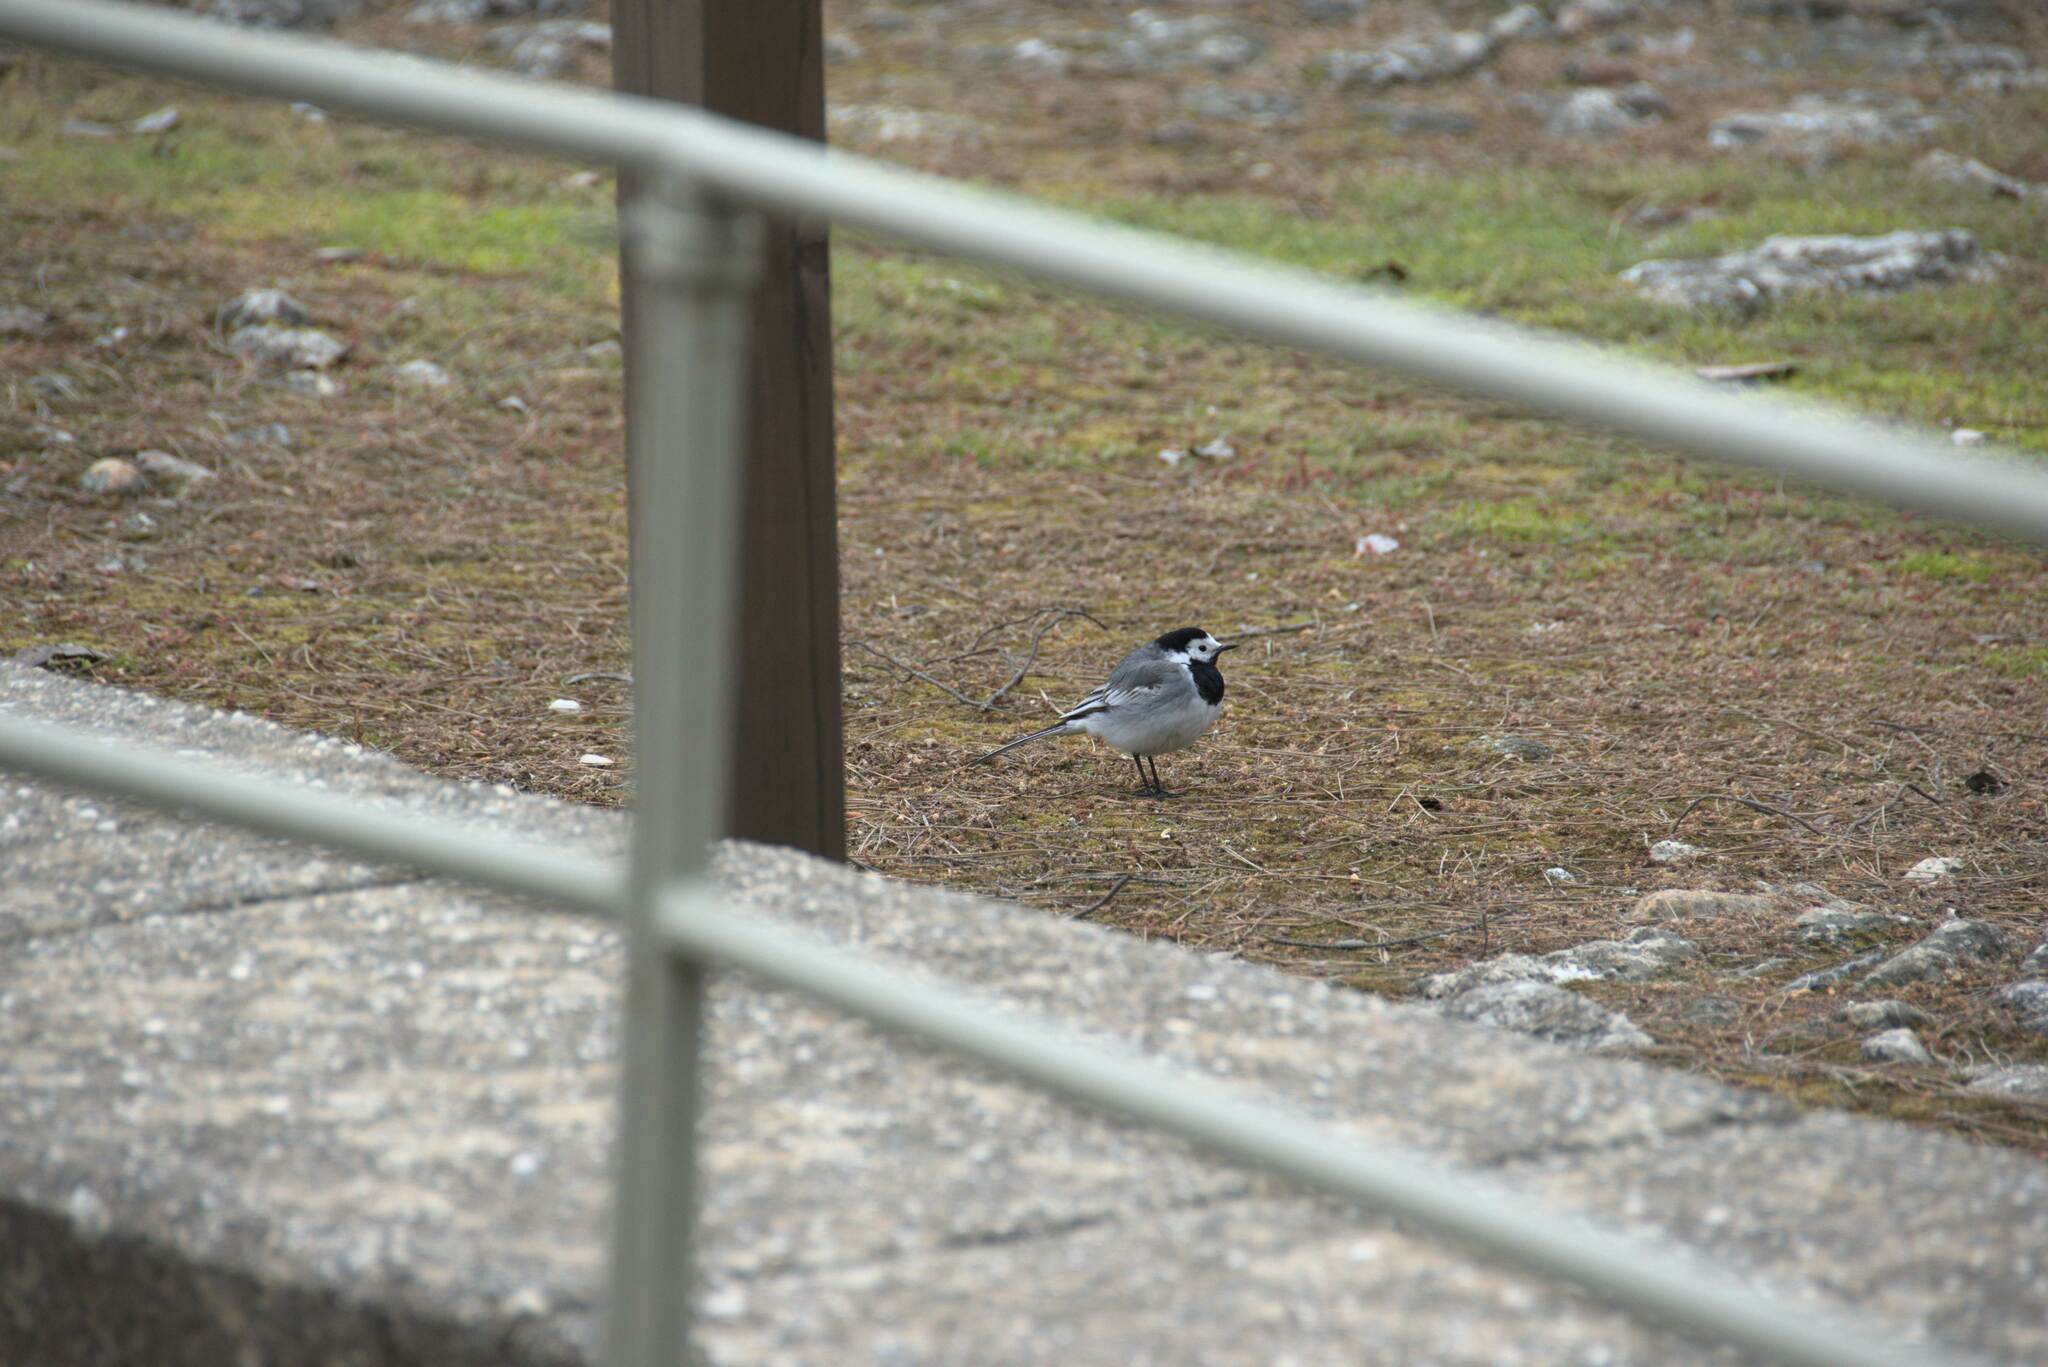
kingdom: Animalia
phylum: Chordata
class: Aves
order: Passeriformes
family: Motacillidae
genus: Motacilla
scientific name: Motacilla alba
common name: White wagtail
